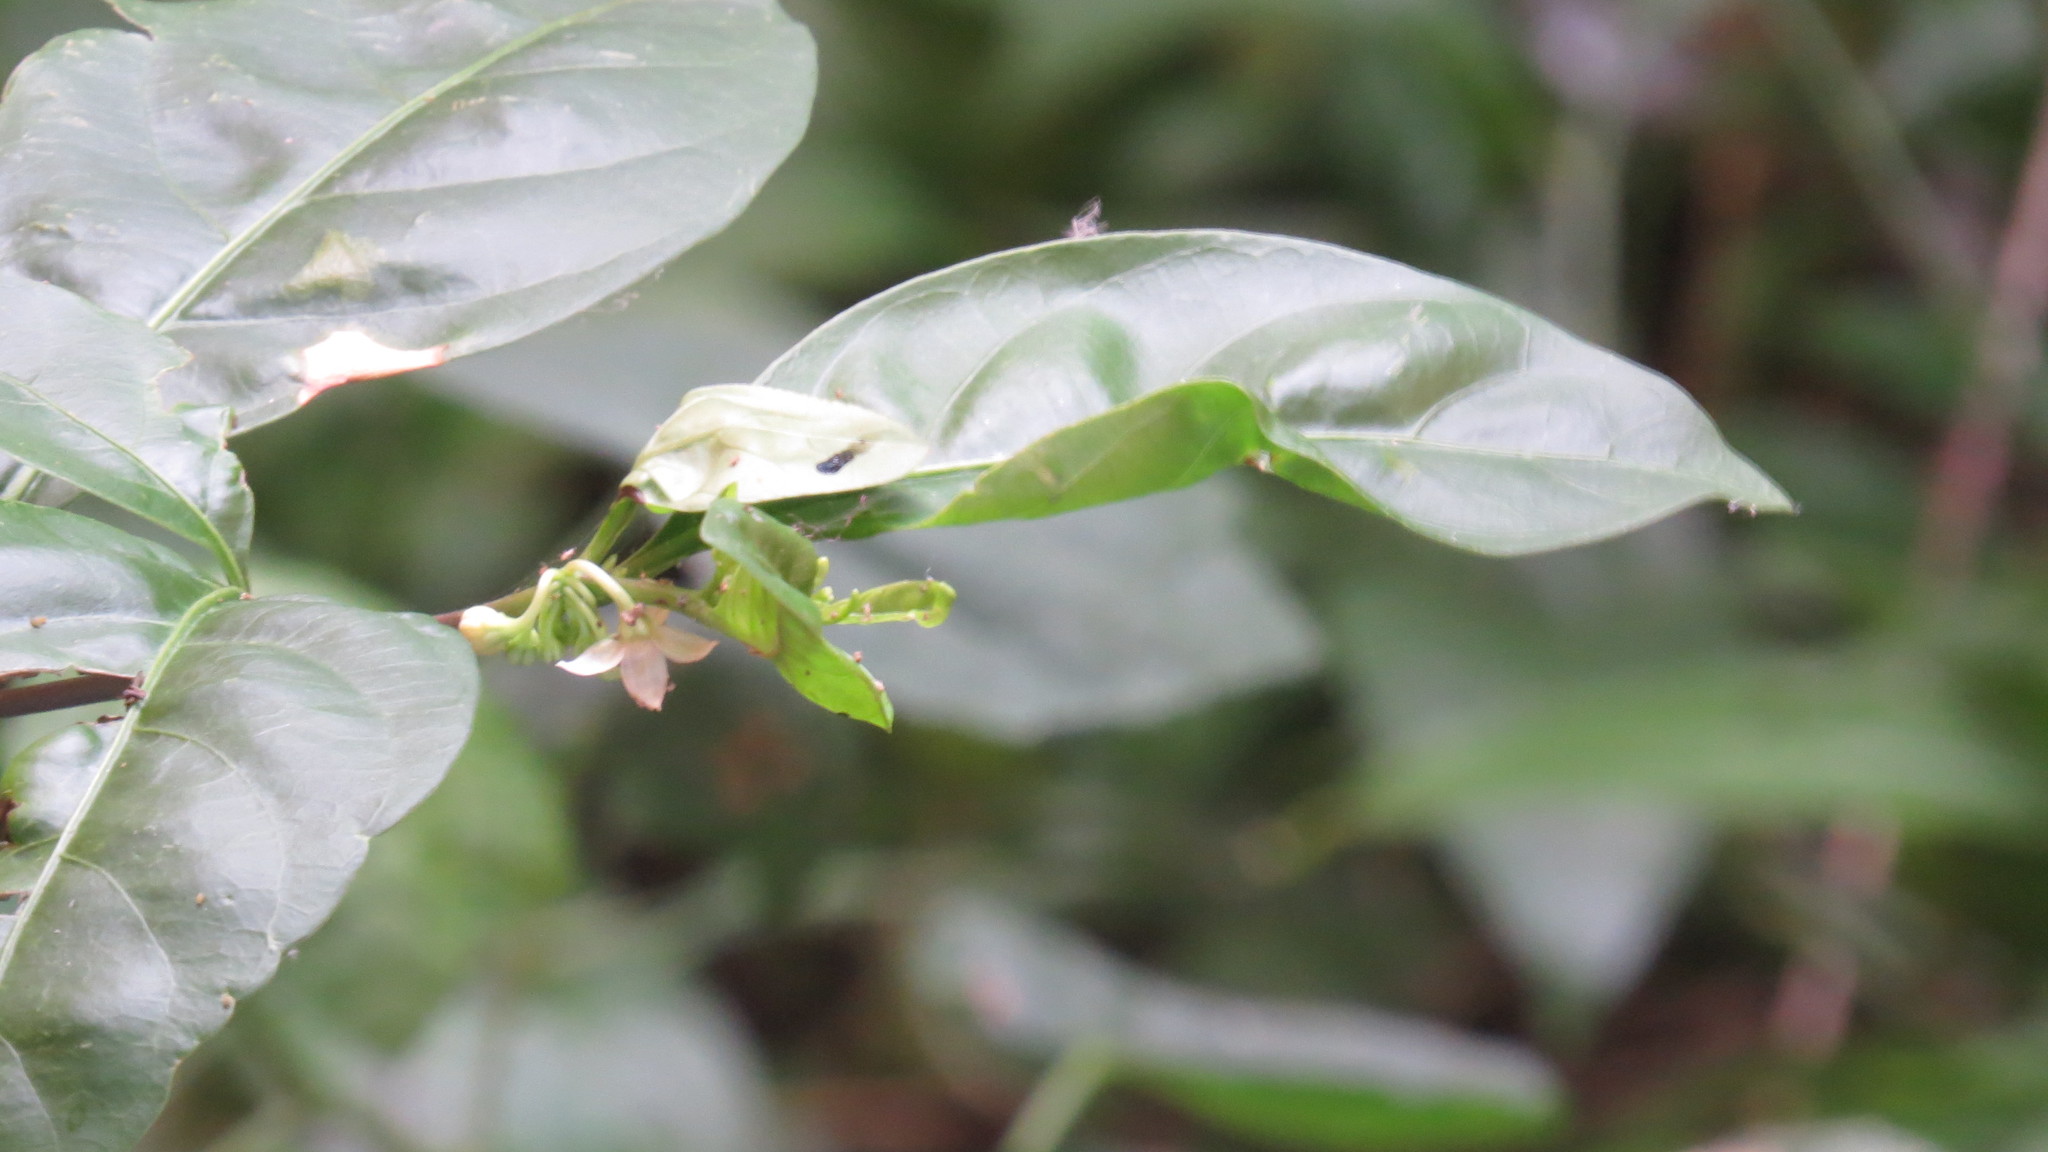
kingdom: Plantae
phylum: Tracheophyta
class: Magnoliopsida
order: Solanales
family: Solanaceae
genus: Solanum
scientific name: Solanum diphyllum
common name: Twoleaf nightshade
